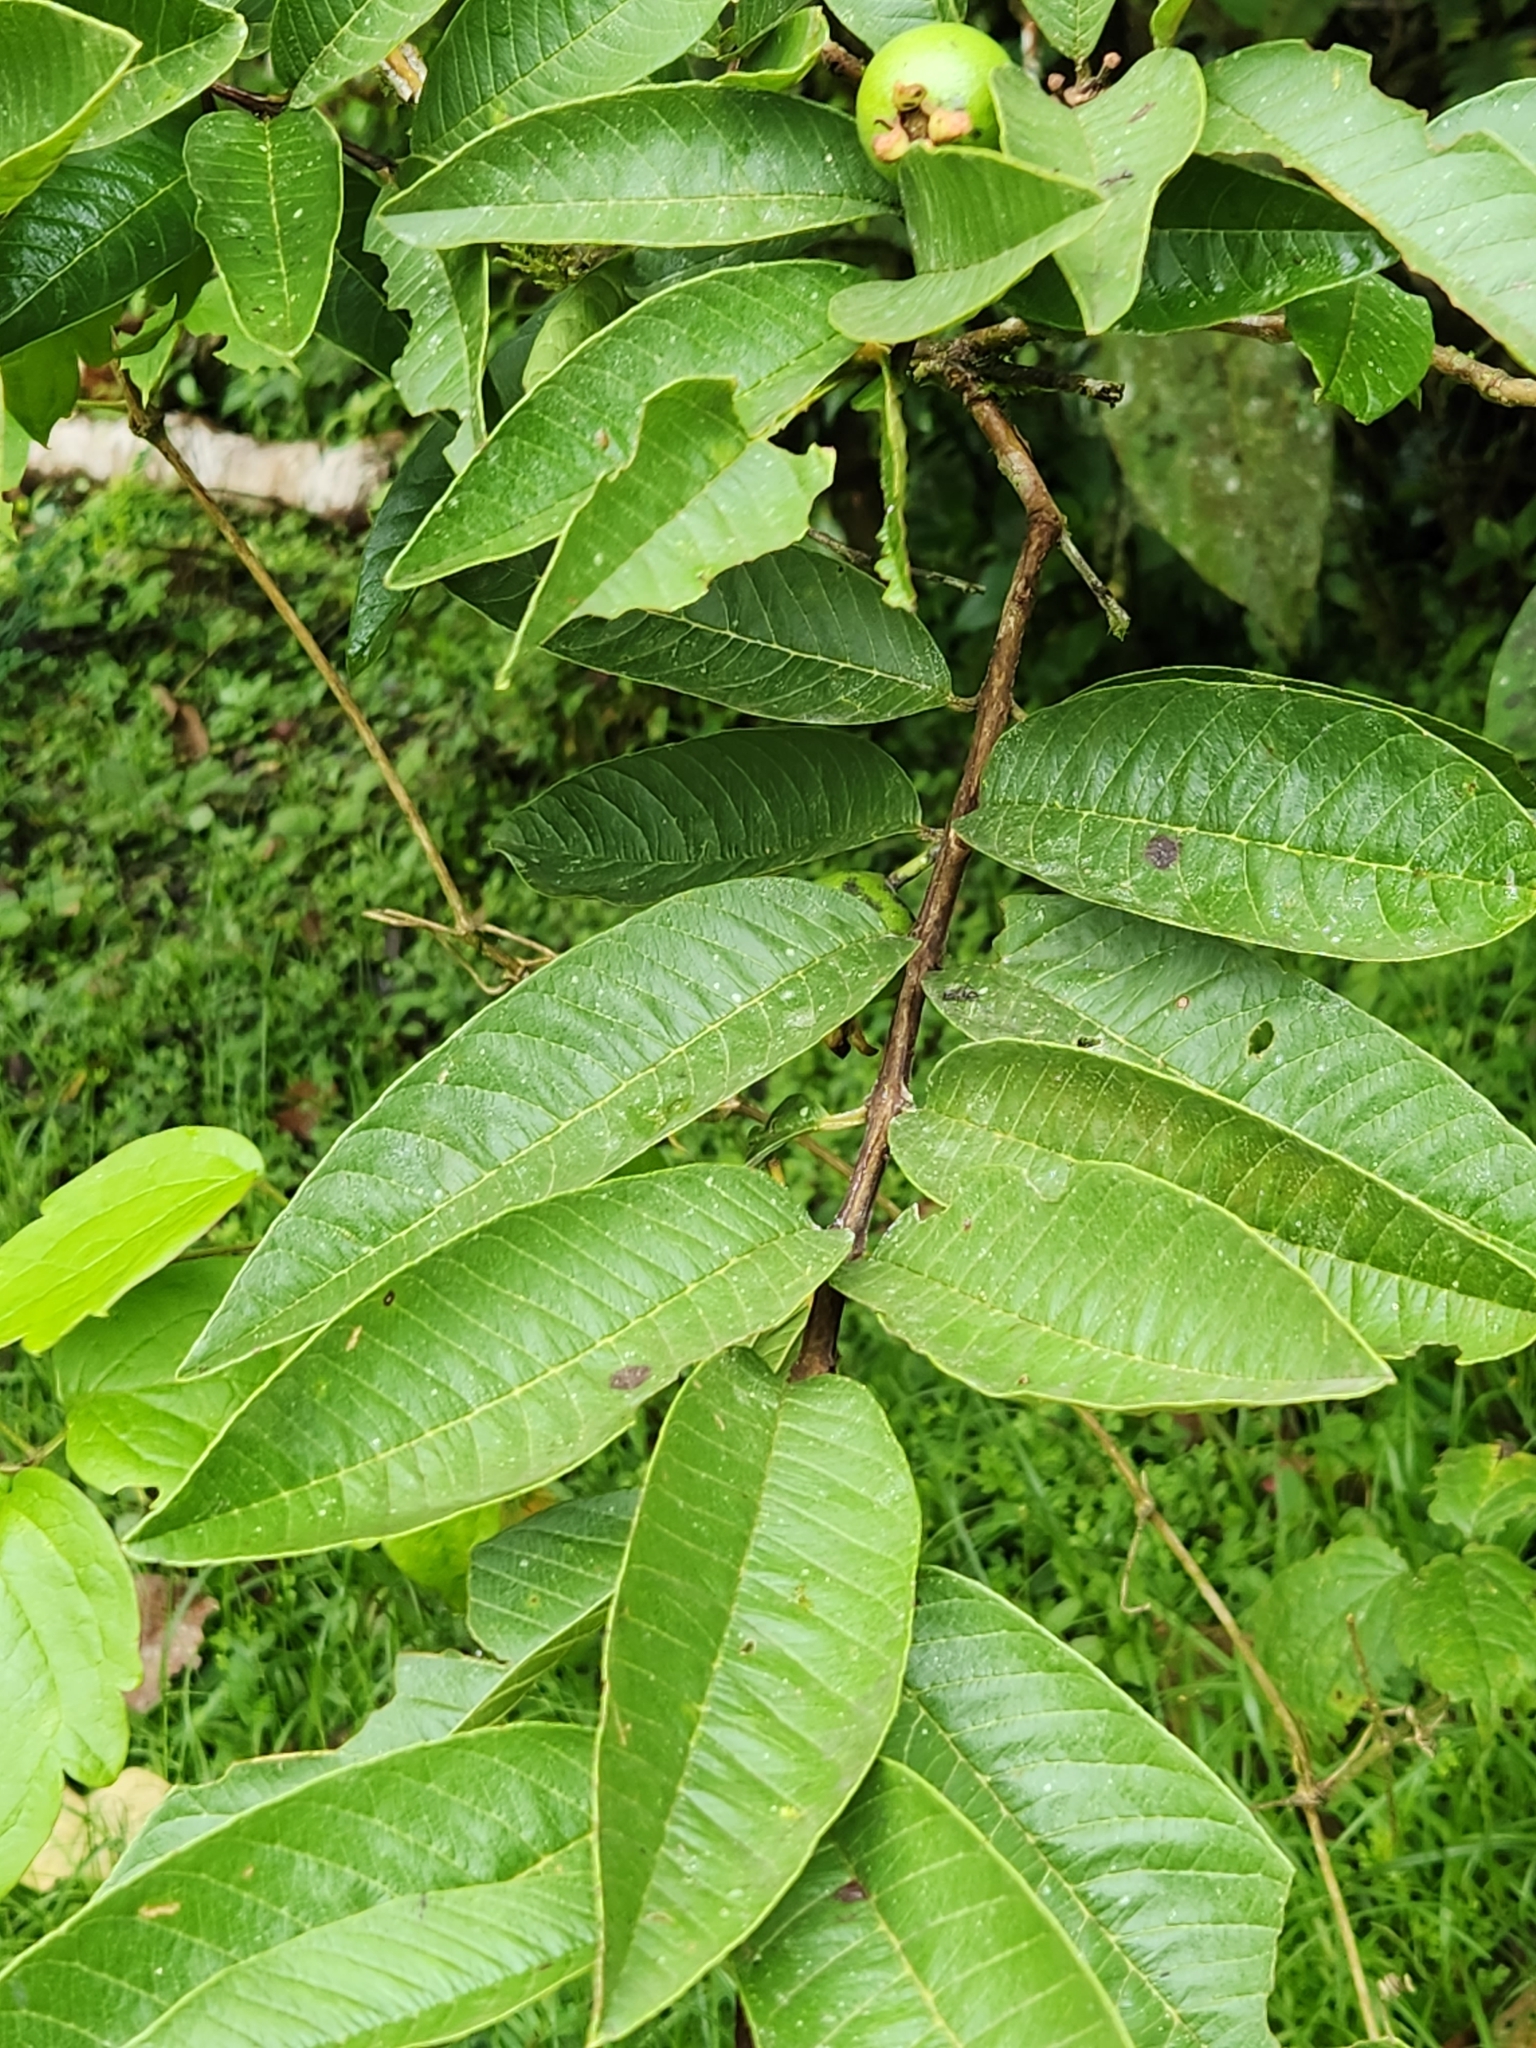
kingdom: Plantae
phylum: Tracheophyta
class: Magnoliopsida
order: Myrtales
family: Myrtaceae
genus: Psidium
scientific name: Psidium guajava
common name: Guava
